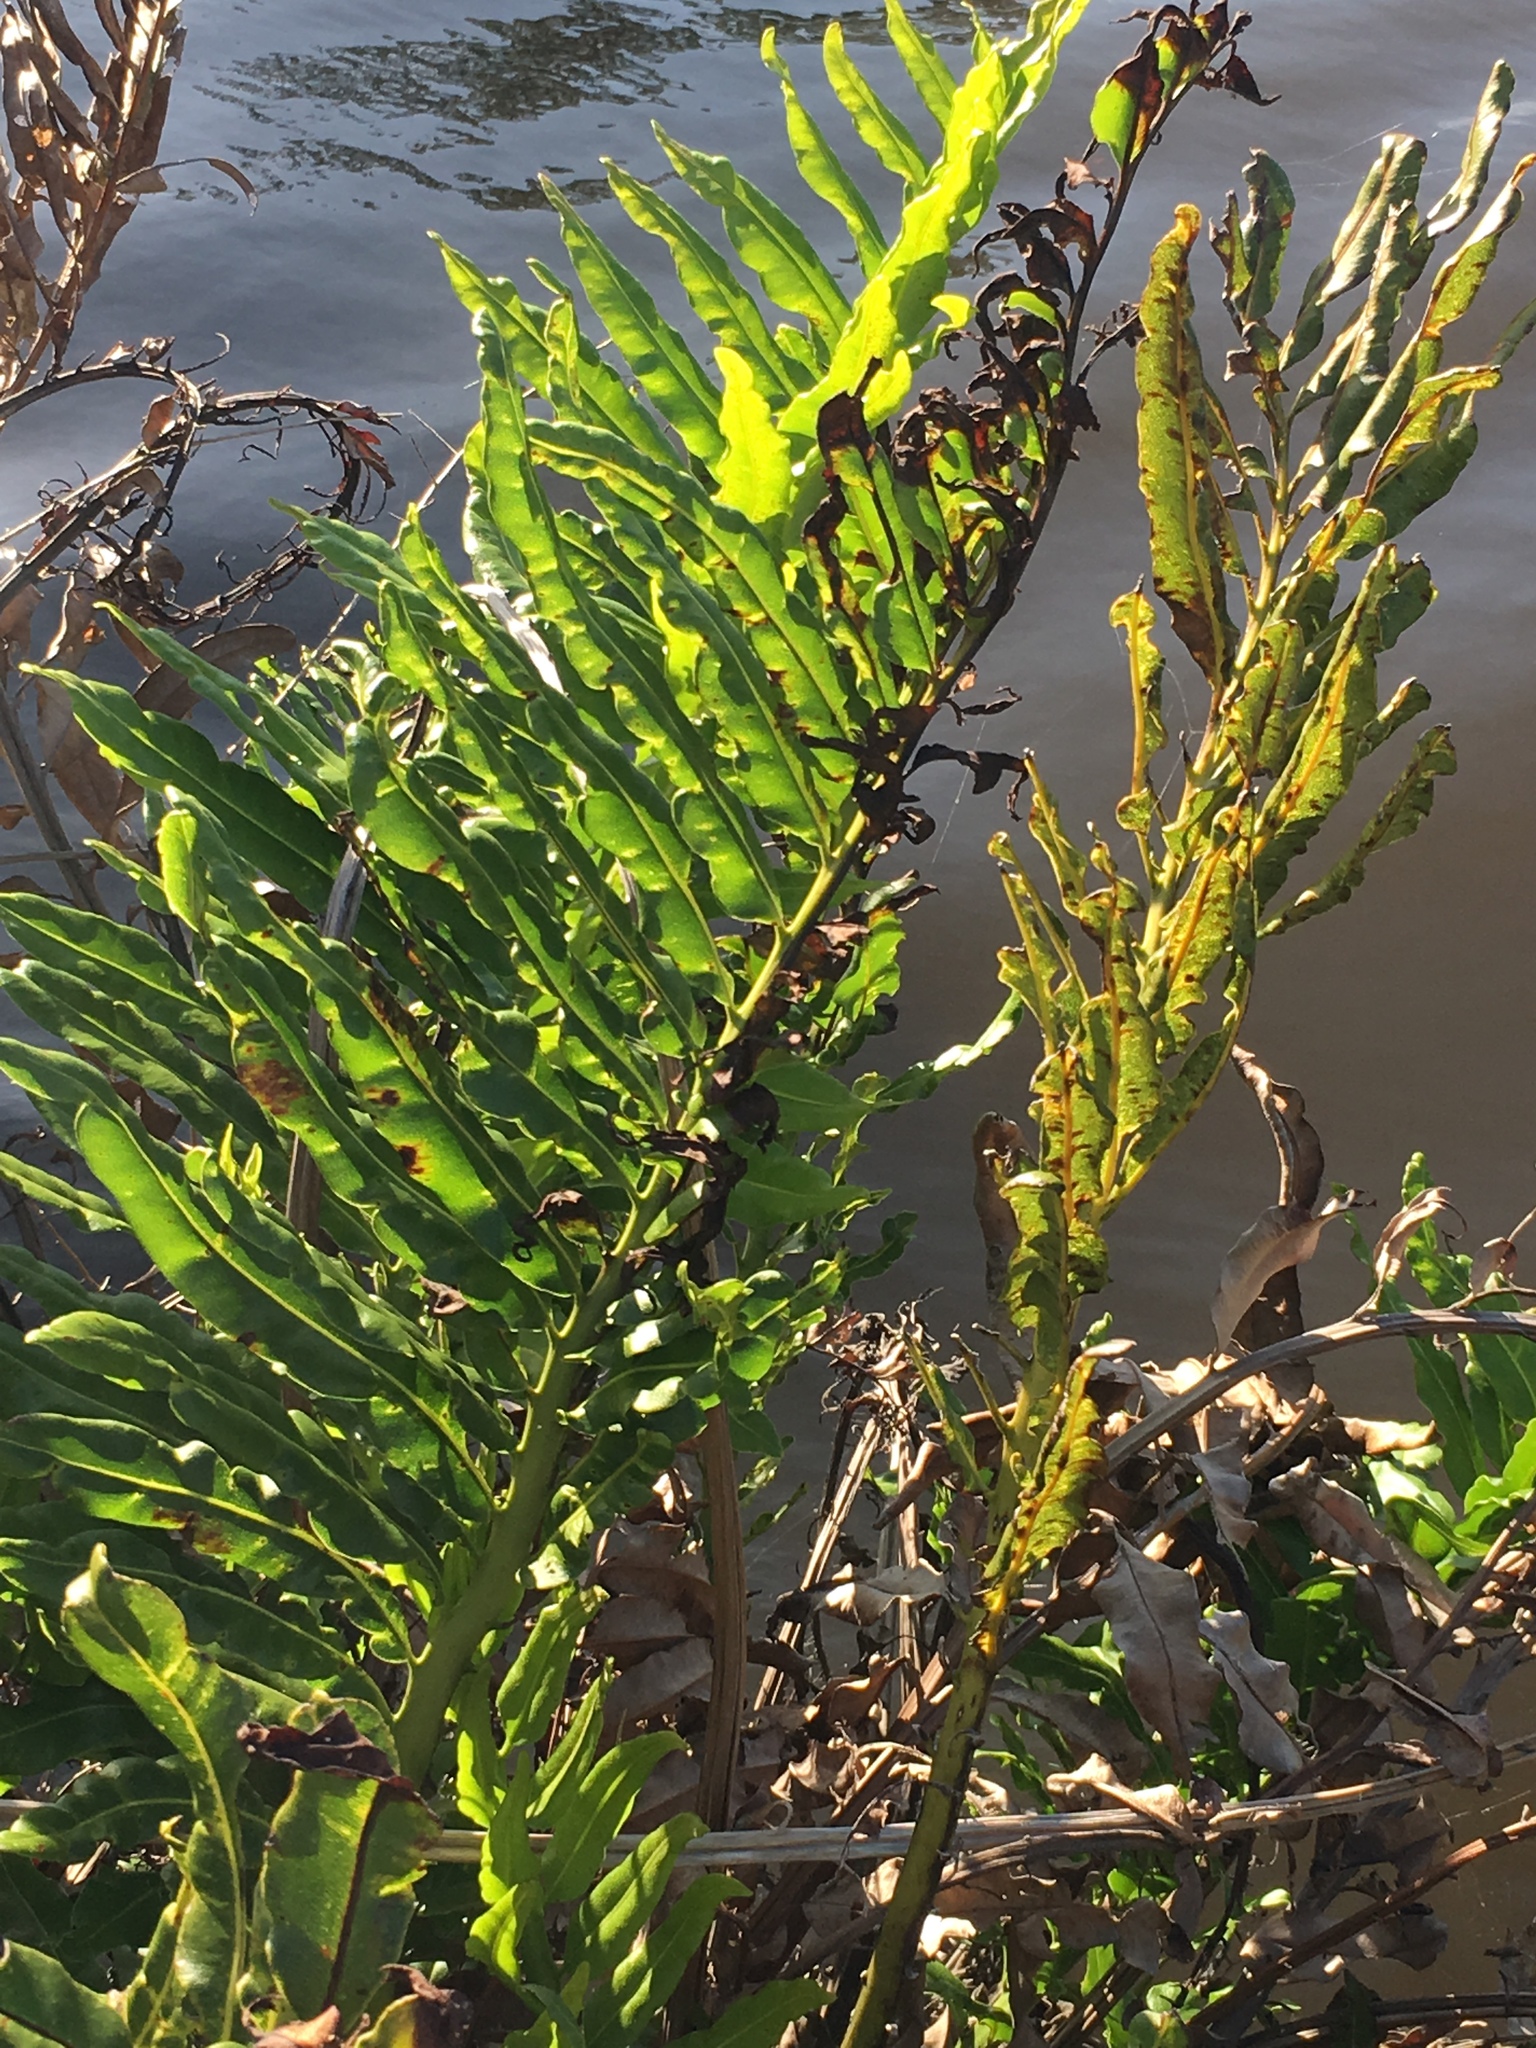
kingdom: Plantae
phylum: Tracheophyta
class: Polypodiopsida
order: Polypodiales
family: Pteridaceae
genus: Acrostichum
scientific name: Acrostichum danaeifolium
